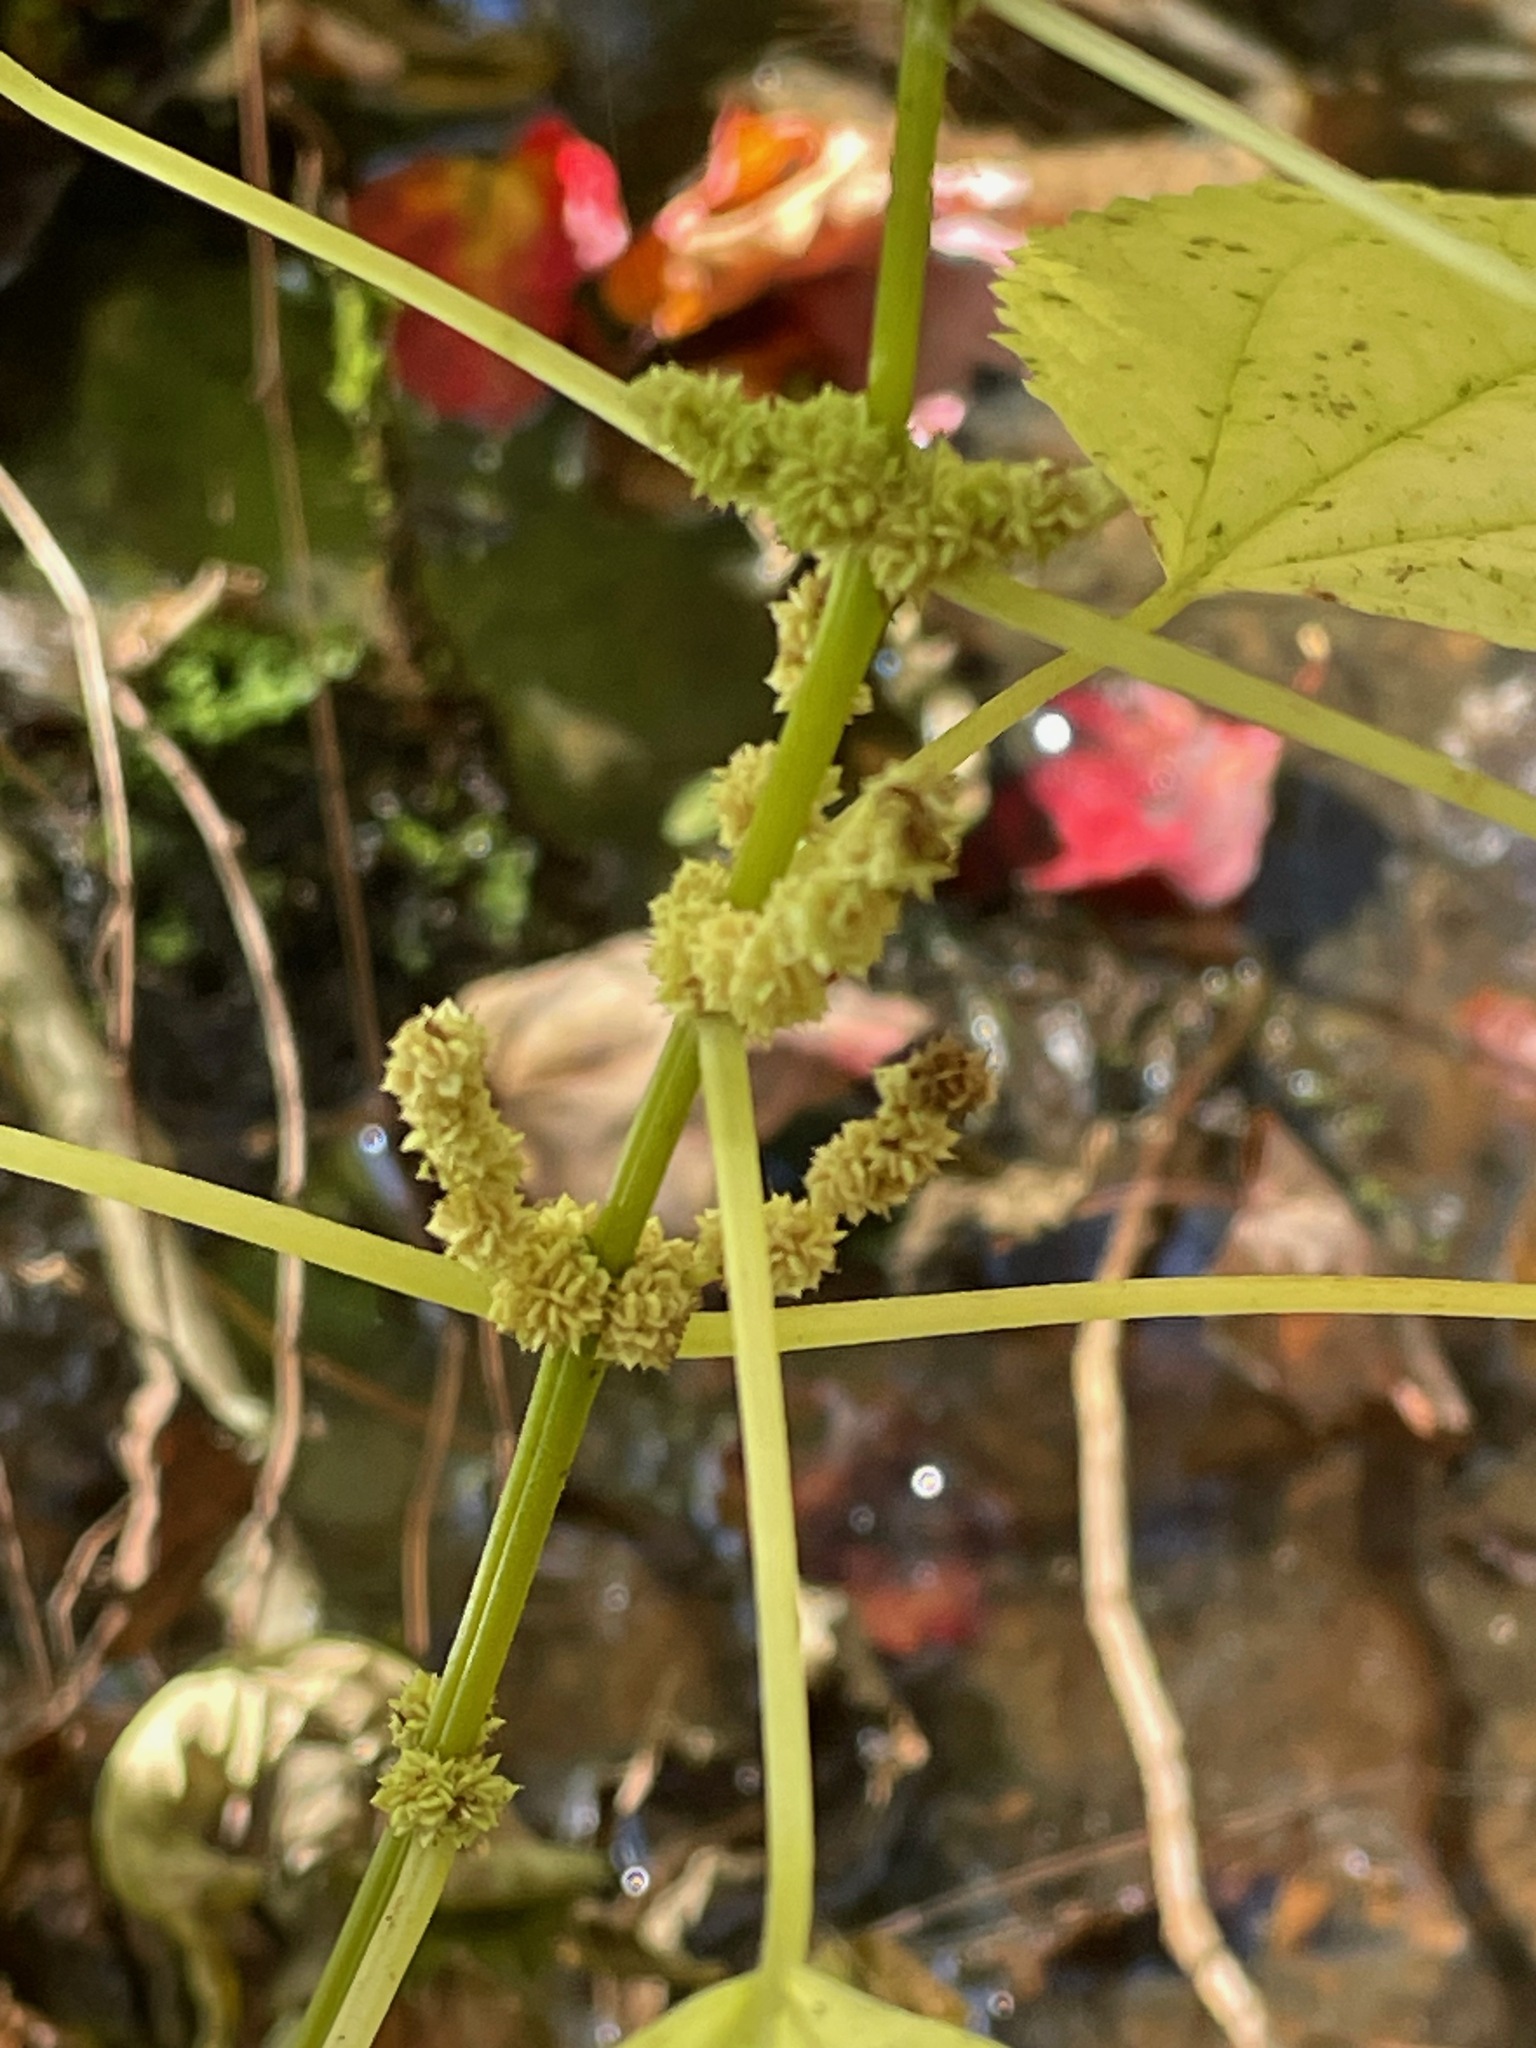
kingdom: Plantae
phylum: Tracheophyta
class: Magnoliopsida
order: Rosales
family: Urticaceae
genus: Boehmeria
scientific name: Boehmeria cylindrica
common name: Bog-hemp
